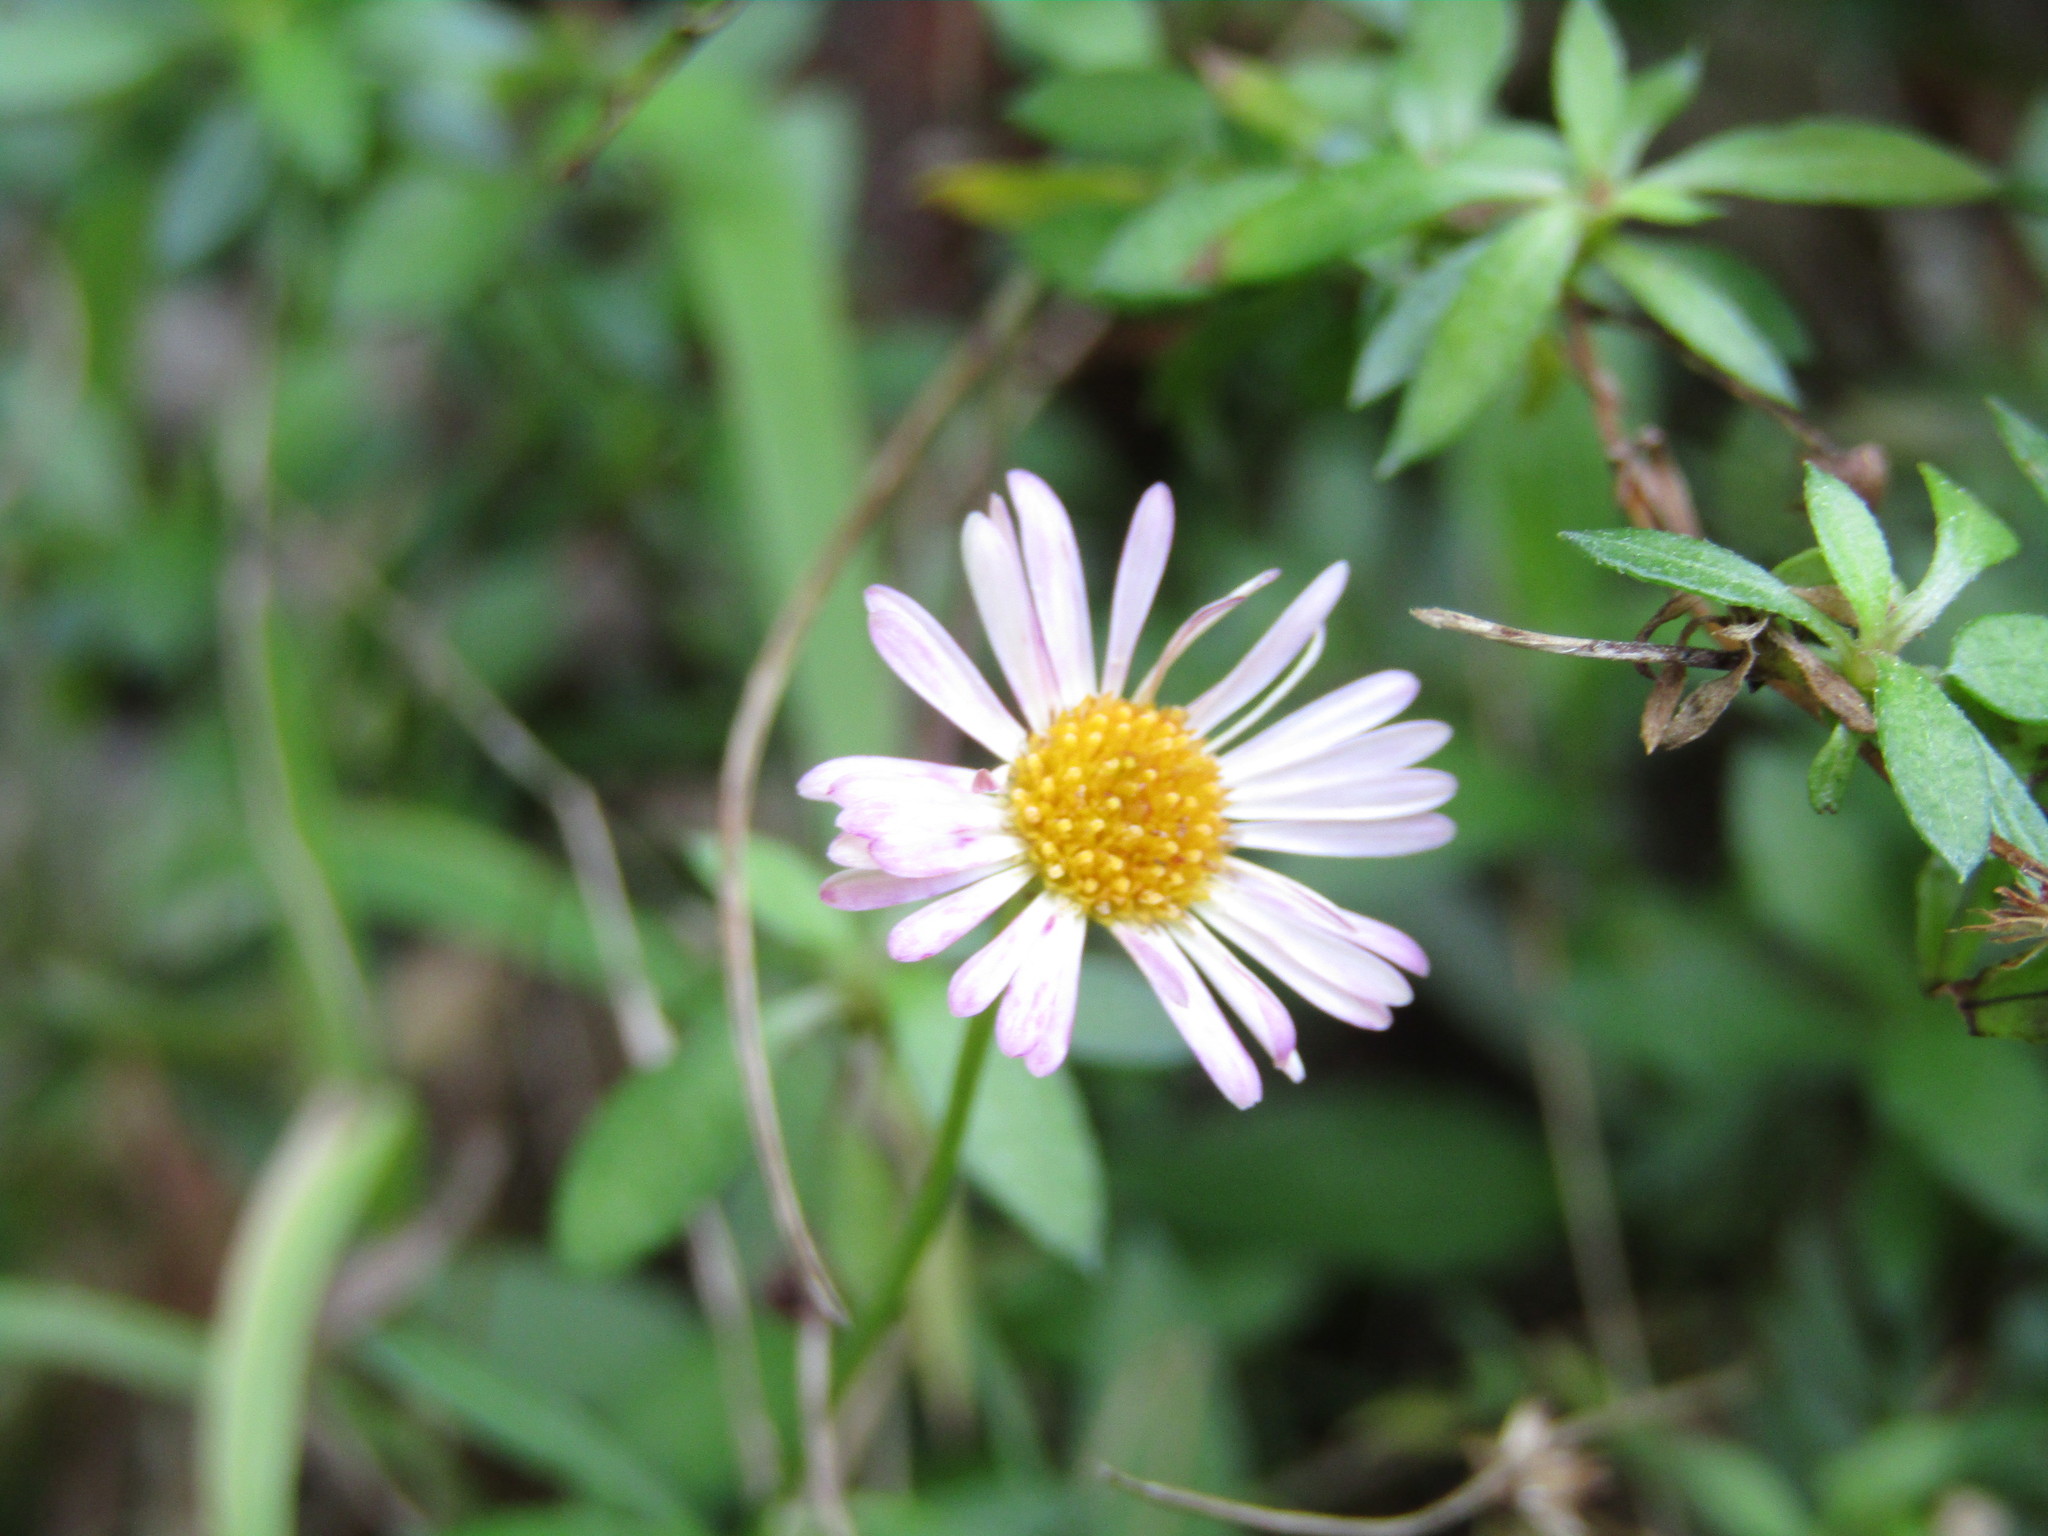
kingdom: Plantae
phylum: Tracheophyta
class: Magnoliopsida
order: Asterales
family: Asteraceae
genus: Erigeron
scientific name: Erigeron karvinskianus
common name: Mexican fleabane
